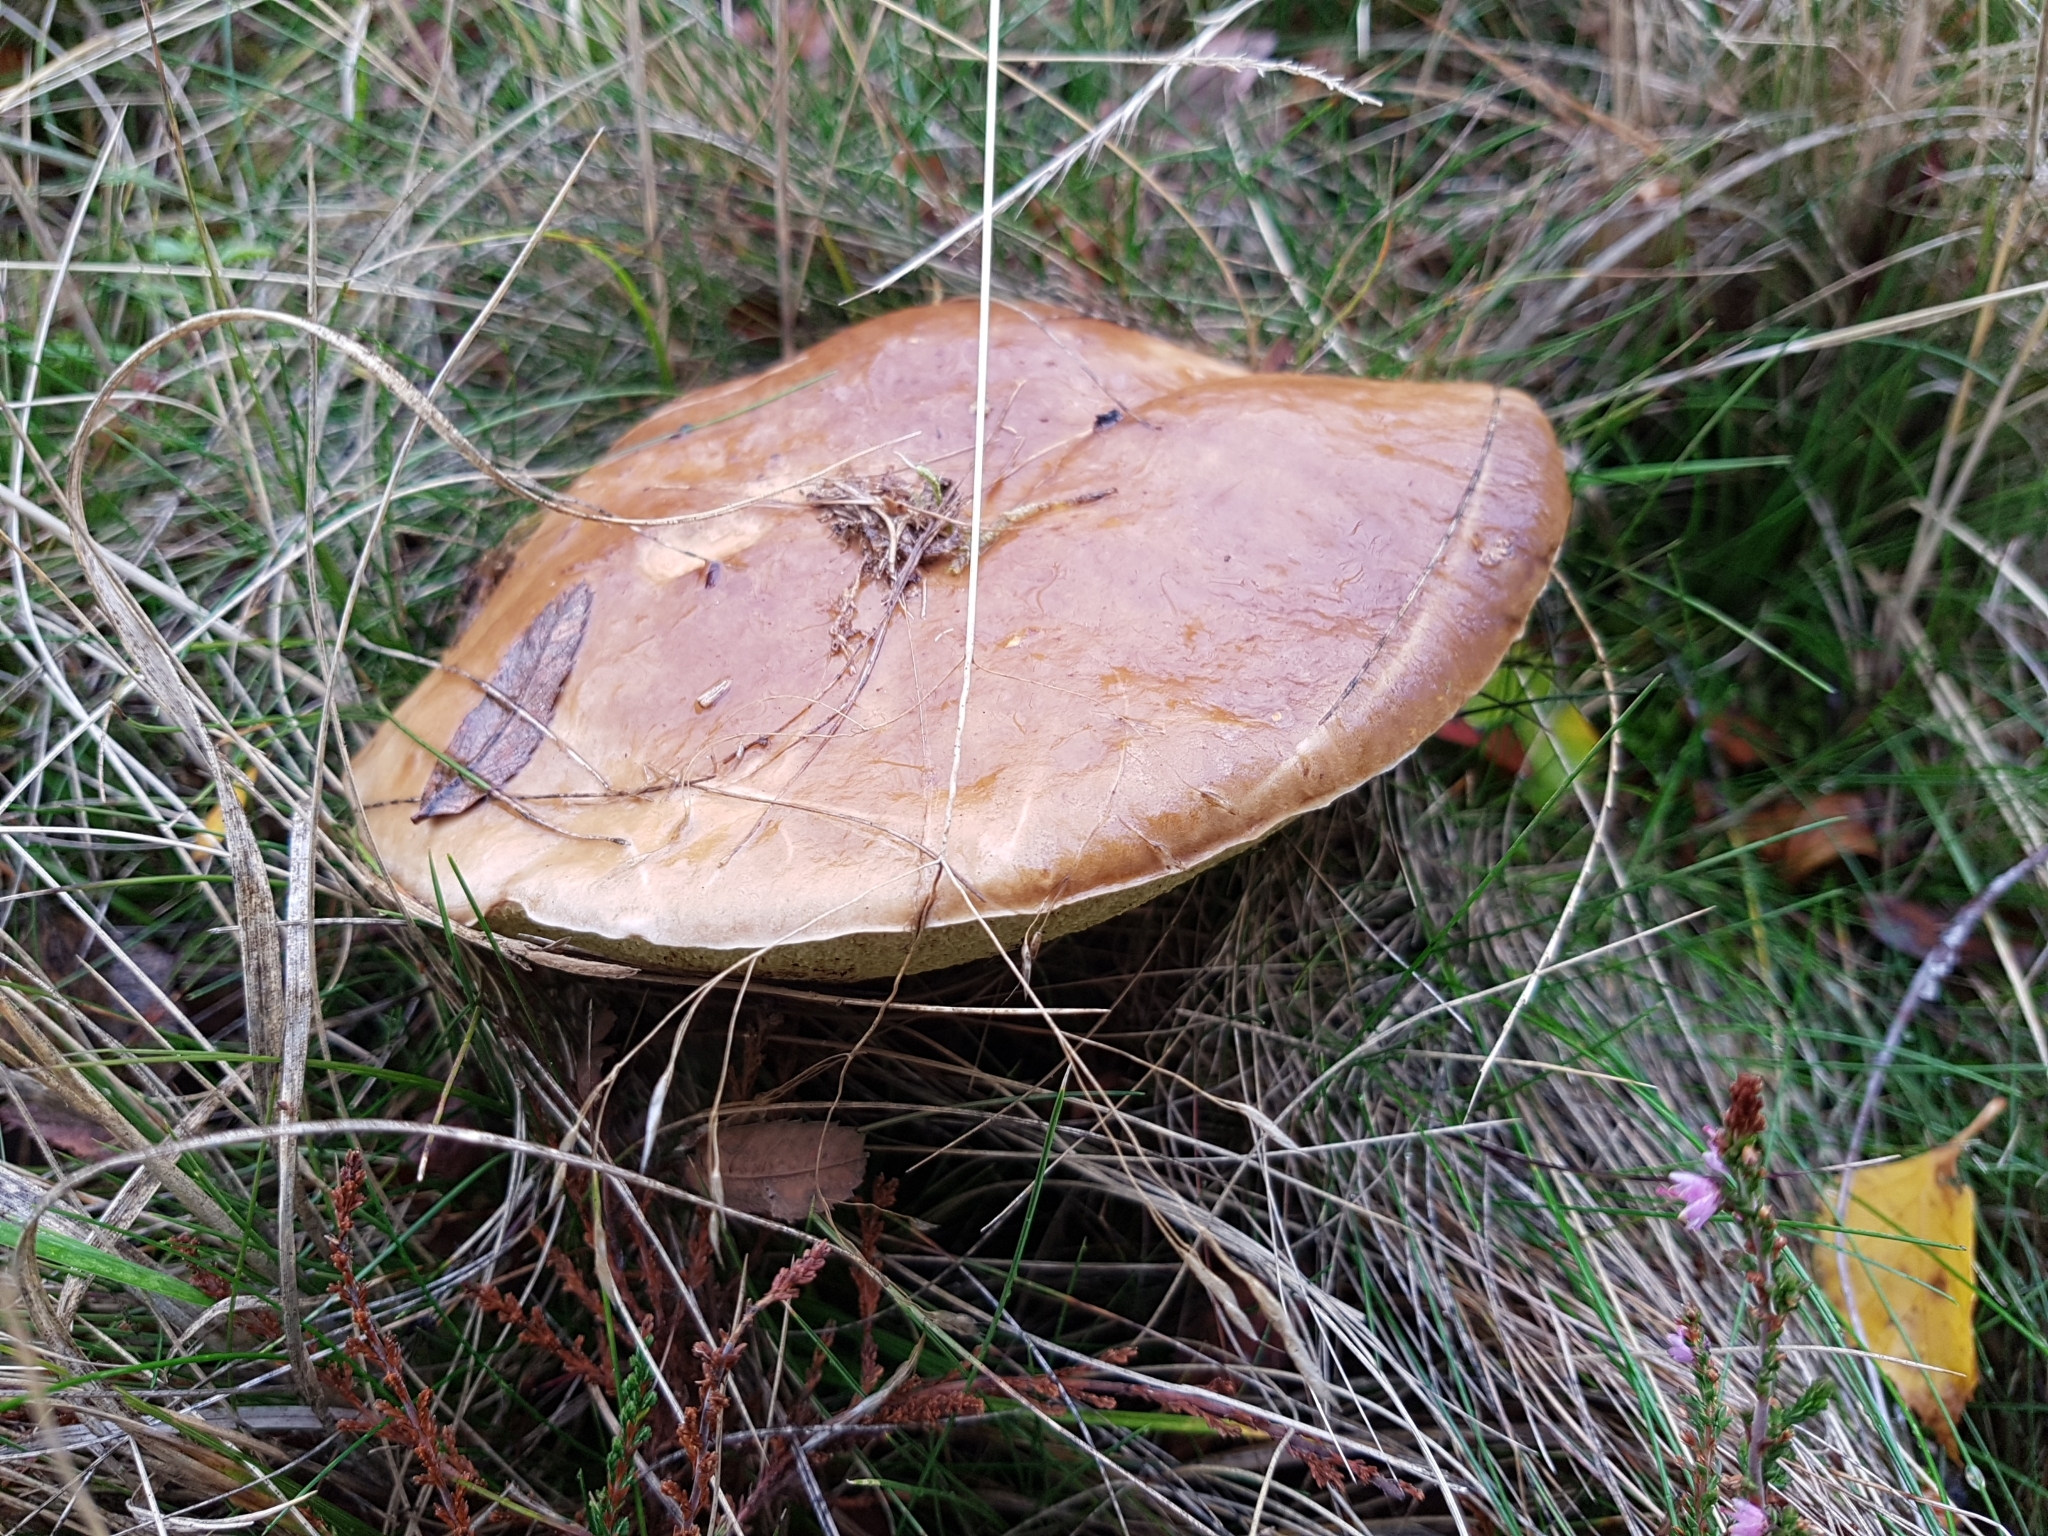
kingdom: Fungi
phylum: Basidiomycota
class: Agaricomycetes
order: Boletales
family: Boletaceae
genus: Boletus
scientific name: Boletus edulis
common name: Cep
